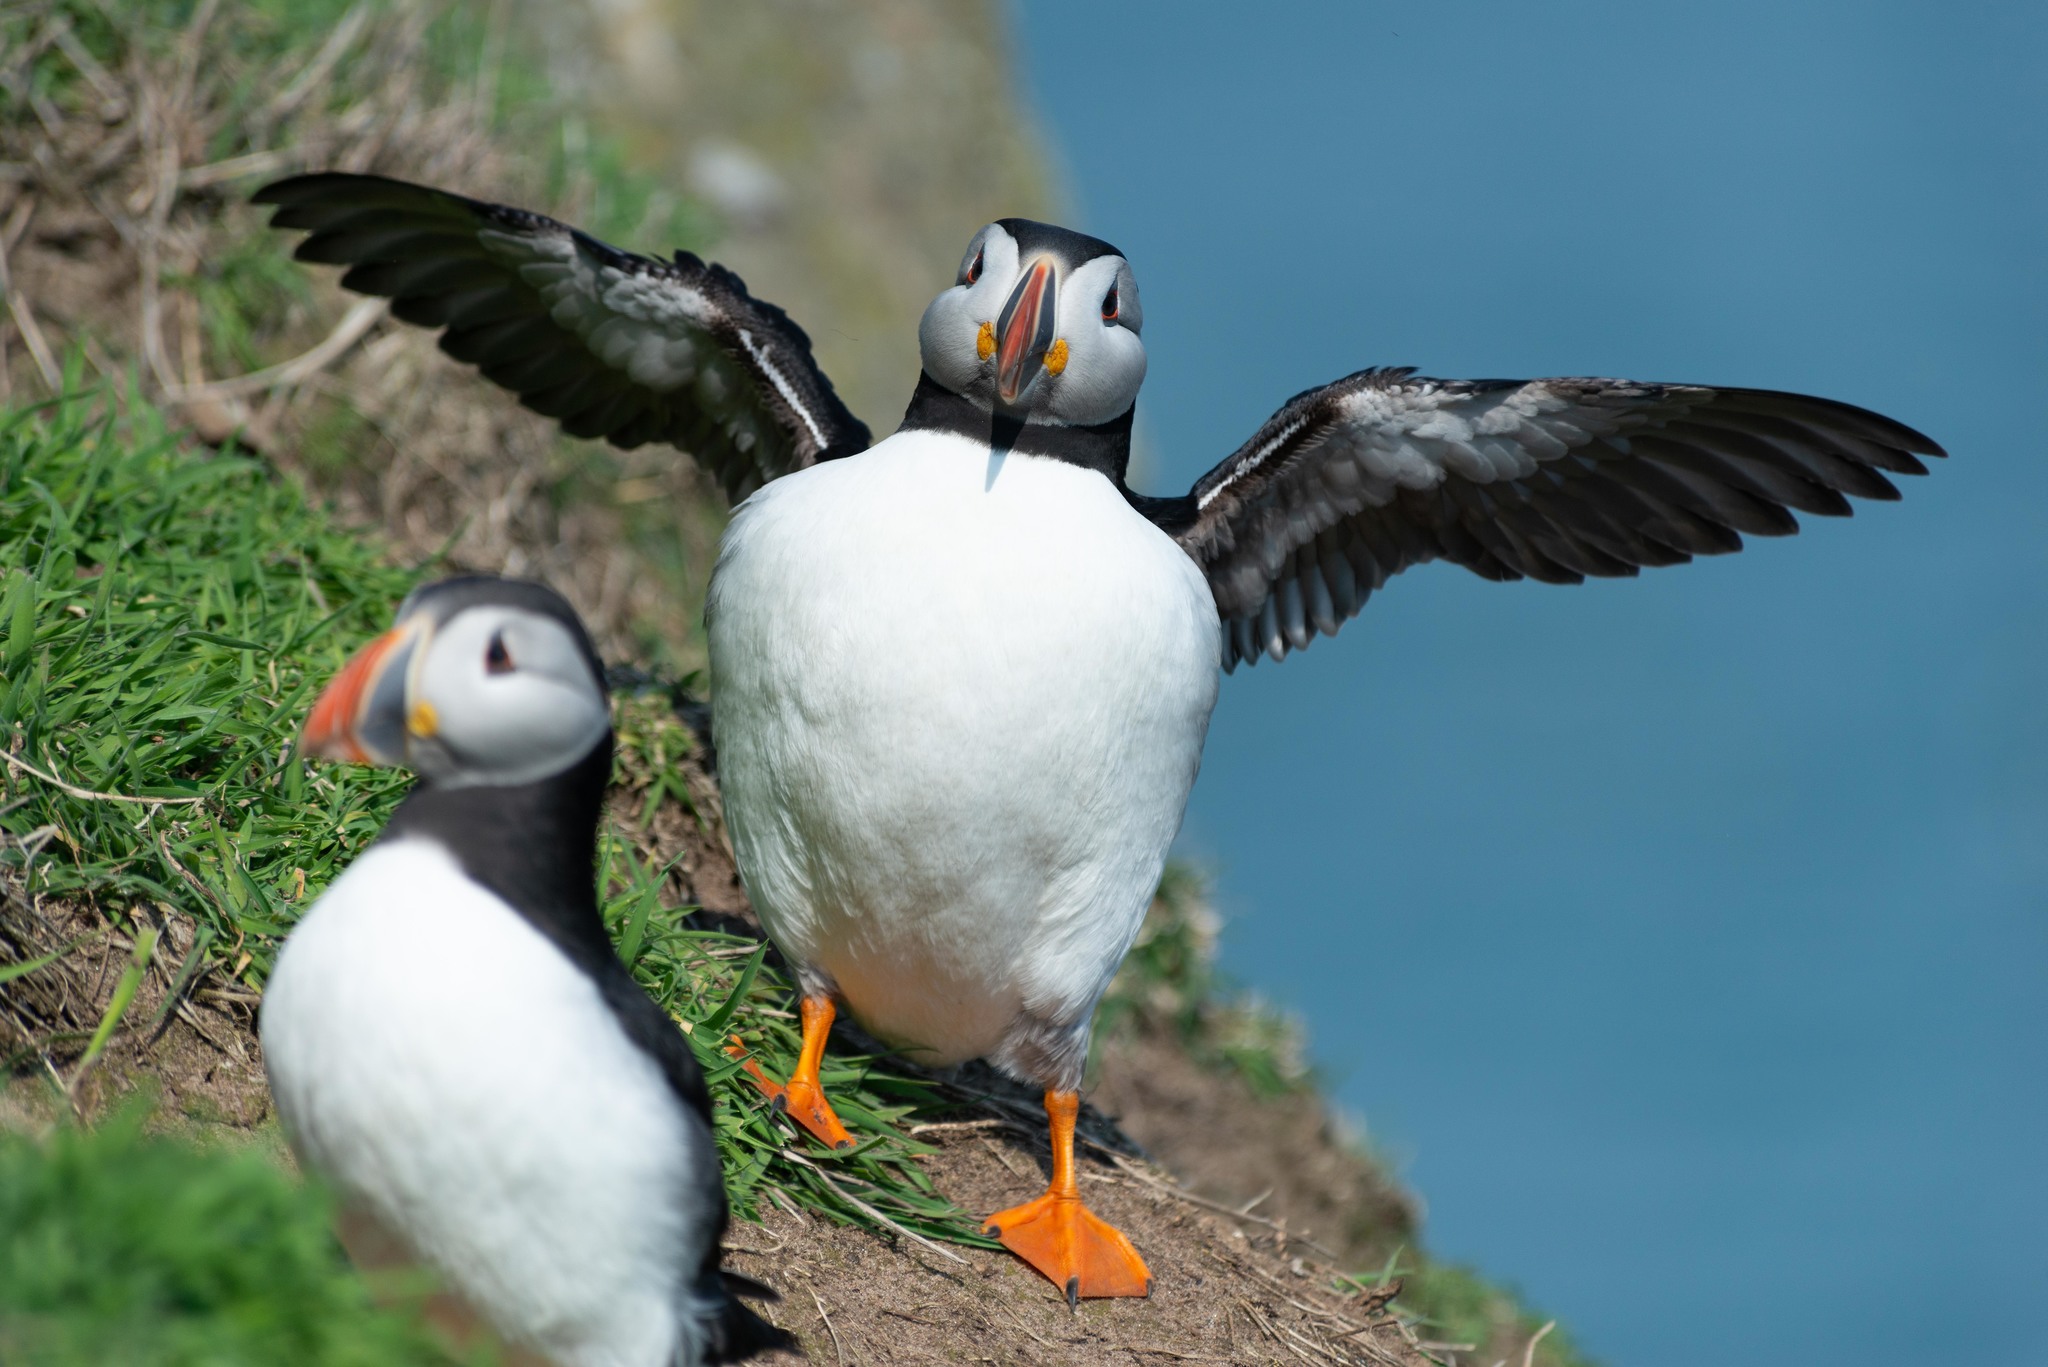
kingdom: Animalia
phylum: Chordata
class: Aves
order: Charadriiformes
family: Alcidae
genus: Fratercula
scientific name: Fratercula arctica
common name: Atlantic puffin
